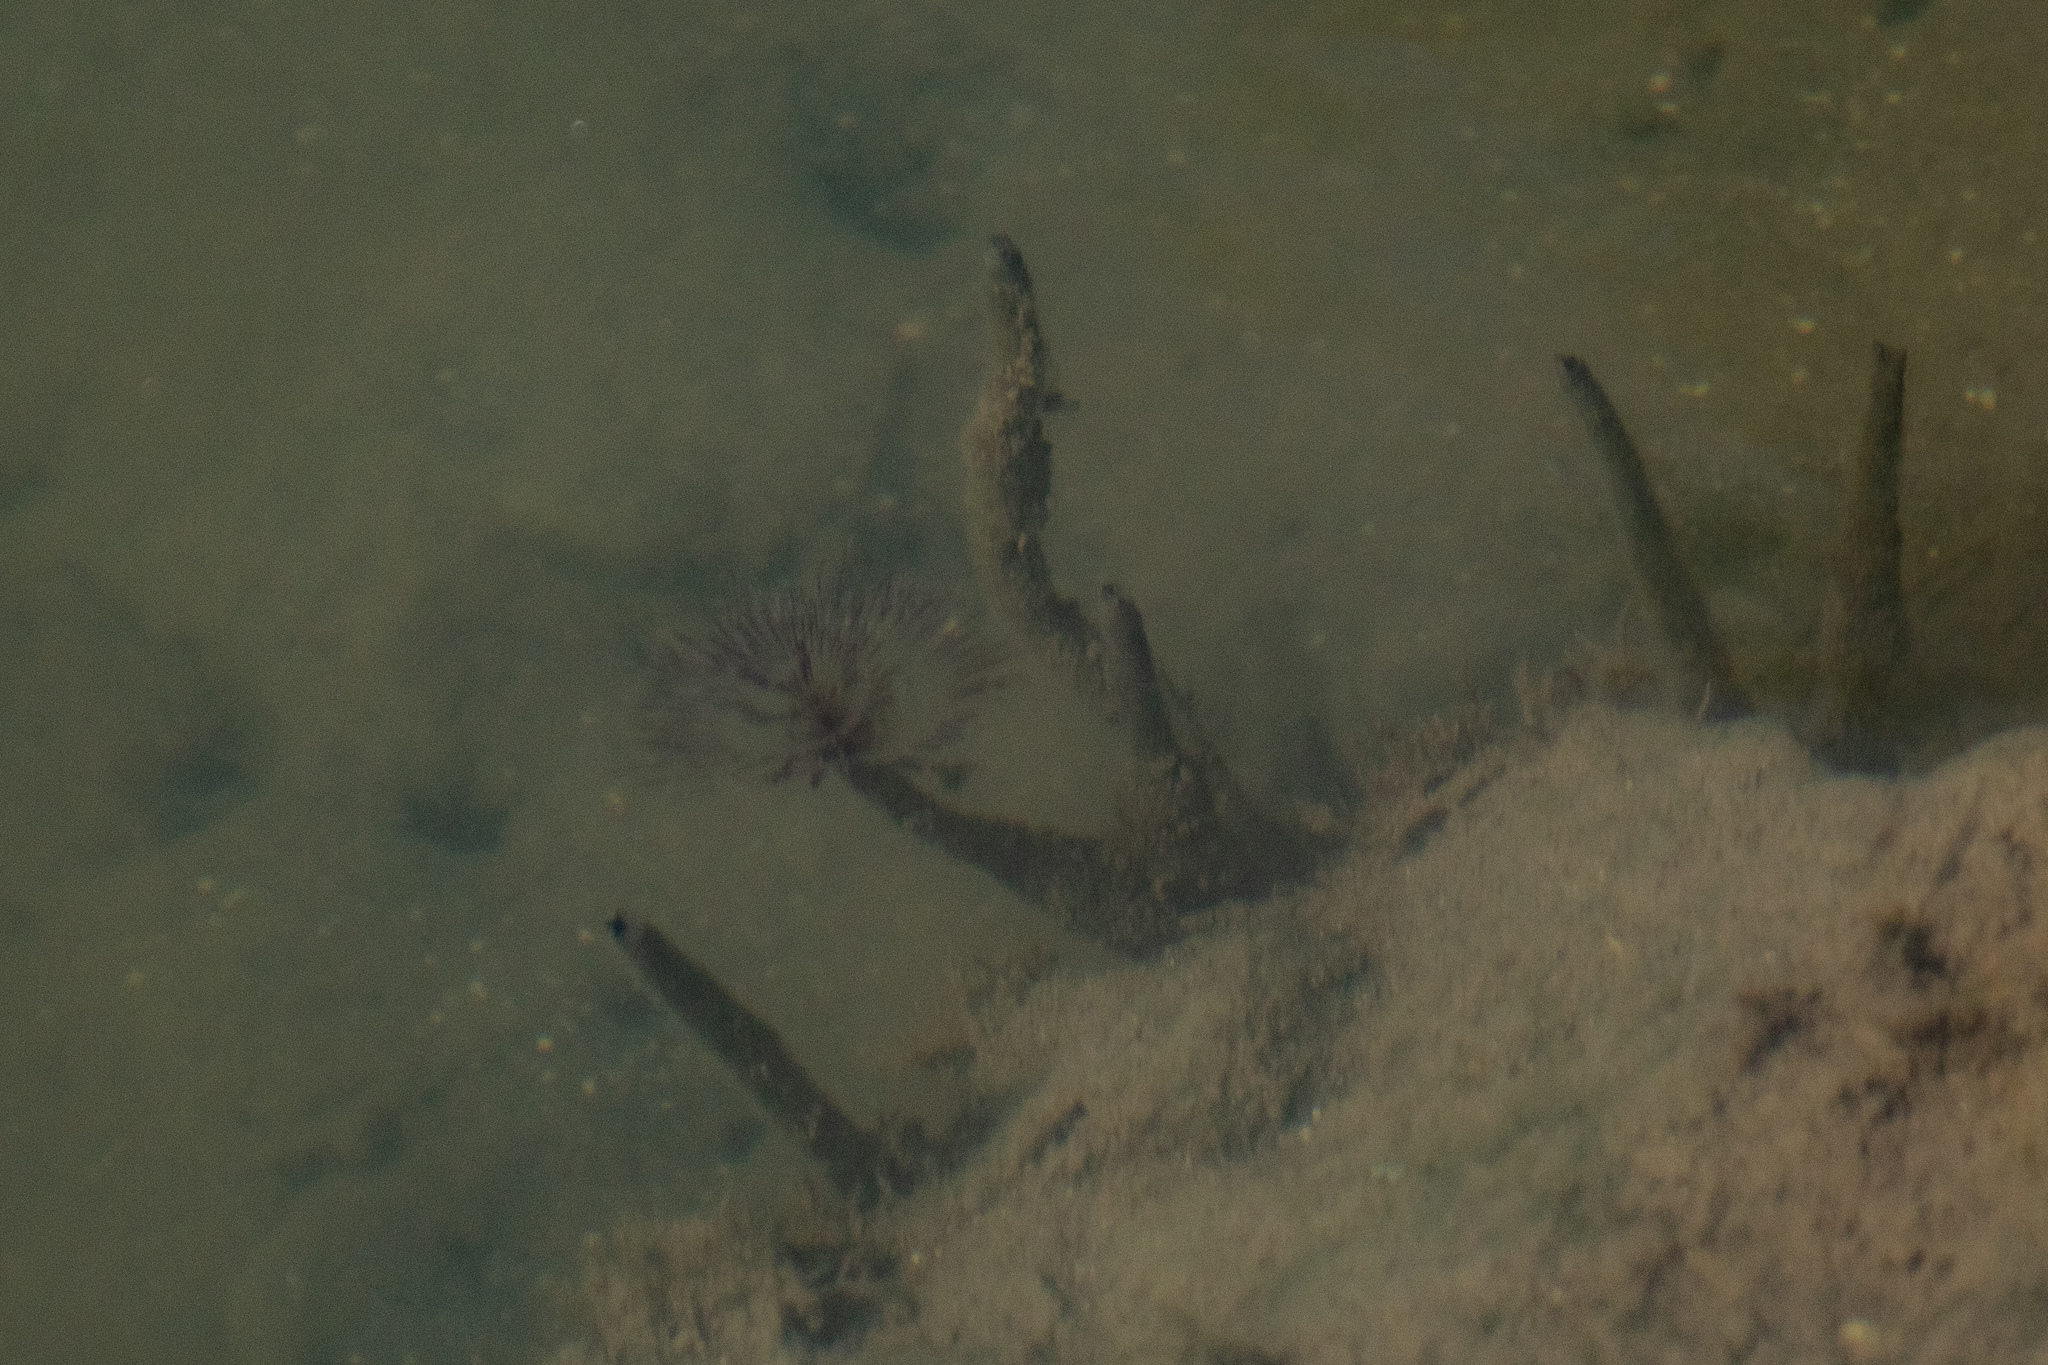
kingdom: Animalia
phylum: Annelida
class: Polychaeta
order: Sabellida
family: Sabellidae
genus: Sabella
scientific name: Sabella spallanzanii
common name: Feather duster worm
